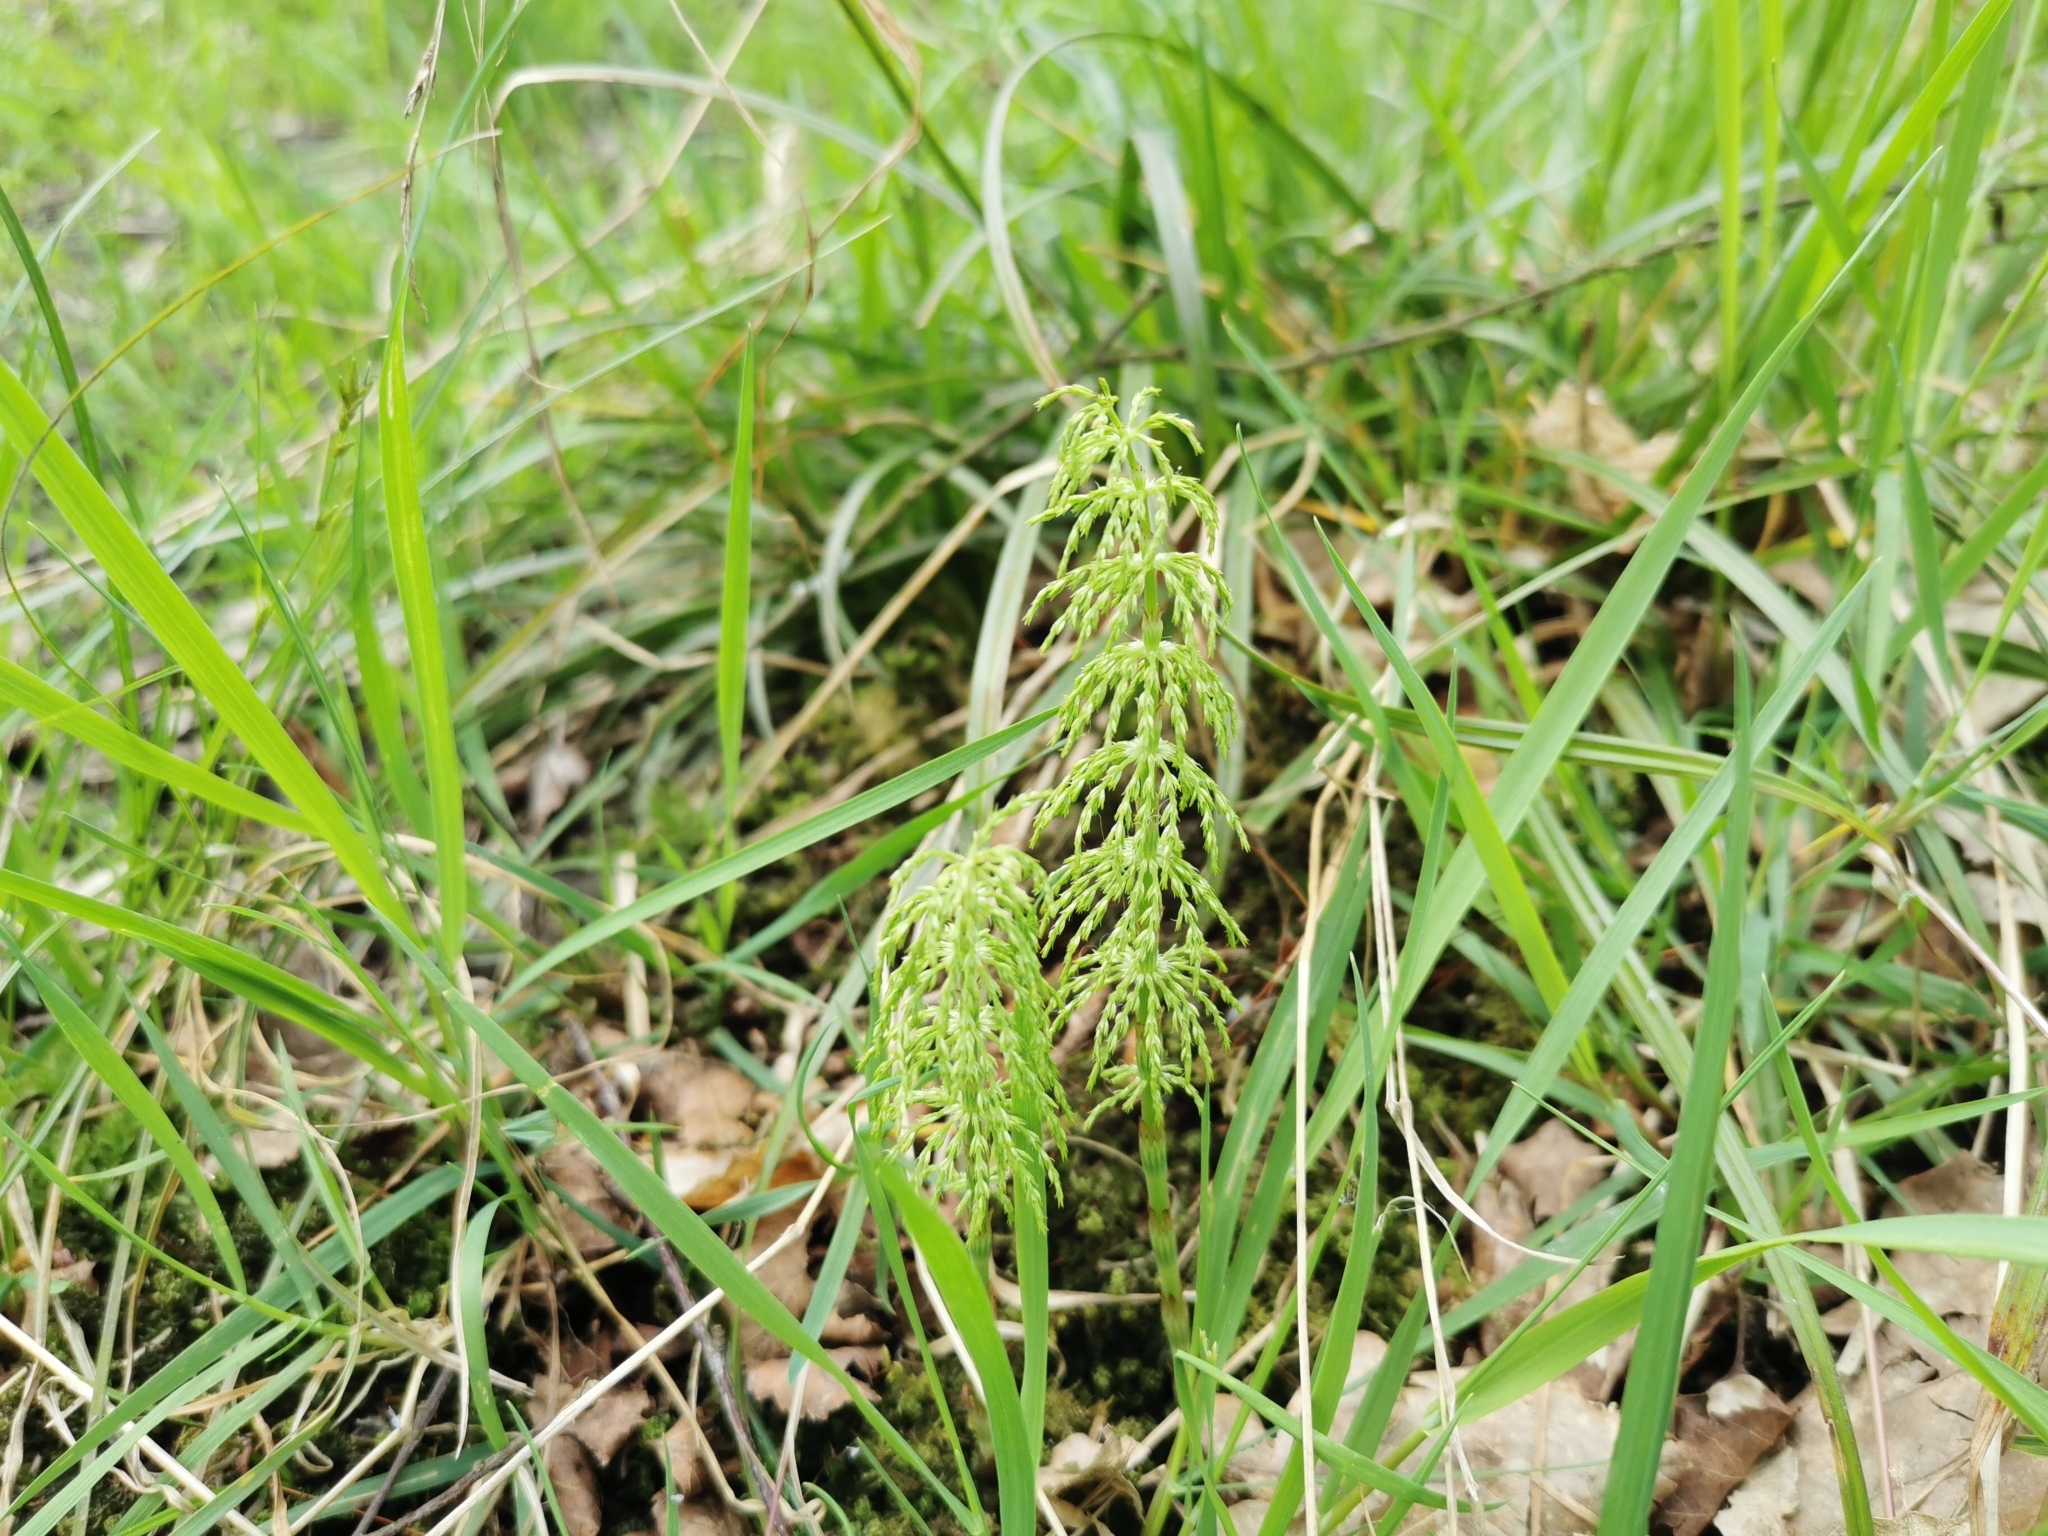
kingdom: Plantae
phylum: Tracheophyta
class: Polypodiopsida
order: Equisetales
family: Equisetaceae
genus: Equisetum
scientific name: Equisetum sylvaticum
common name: Wood horsetail
